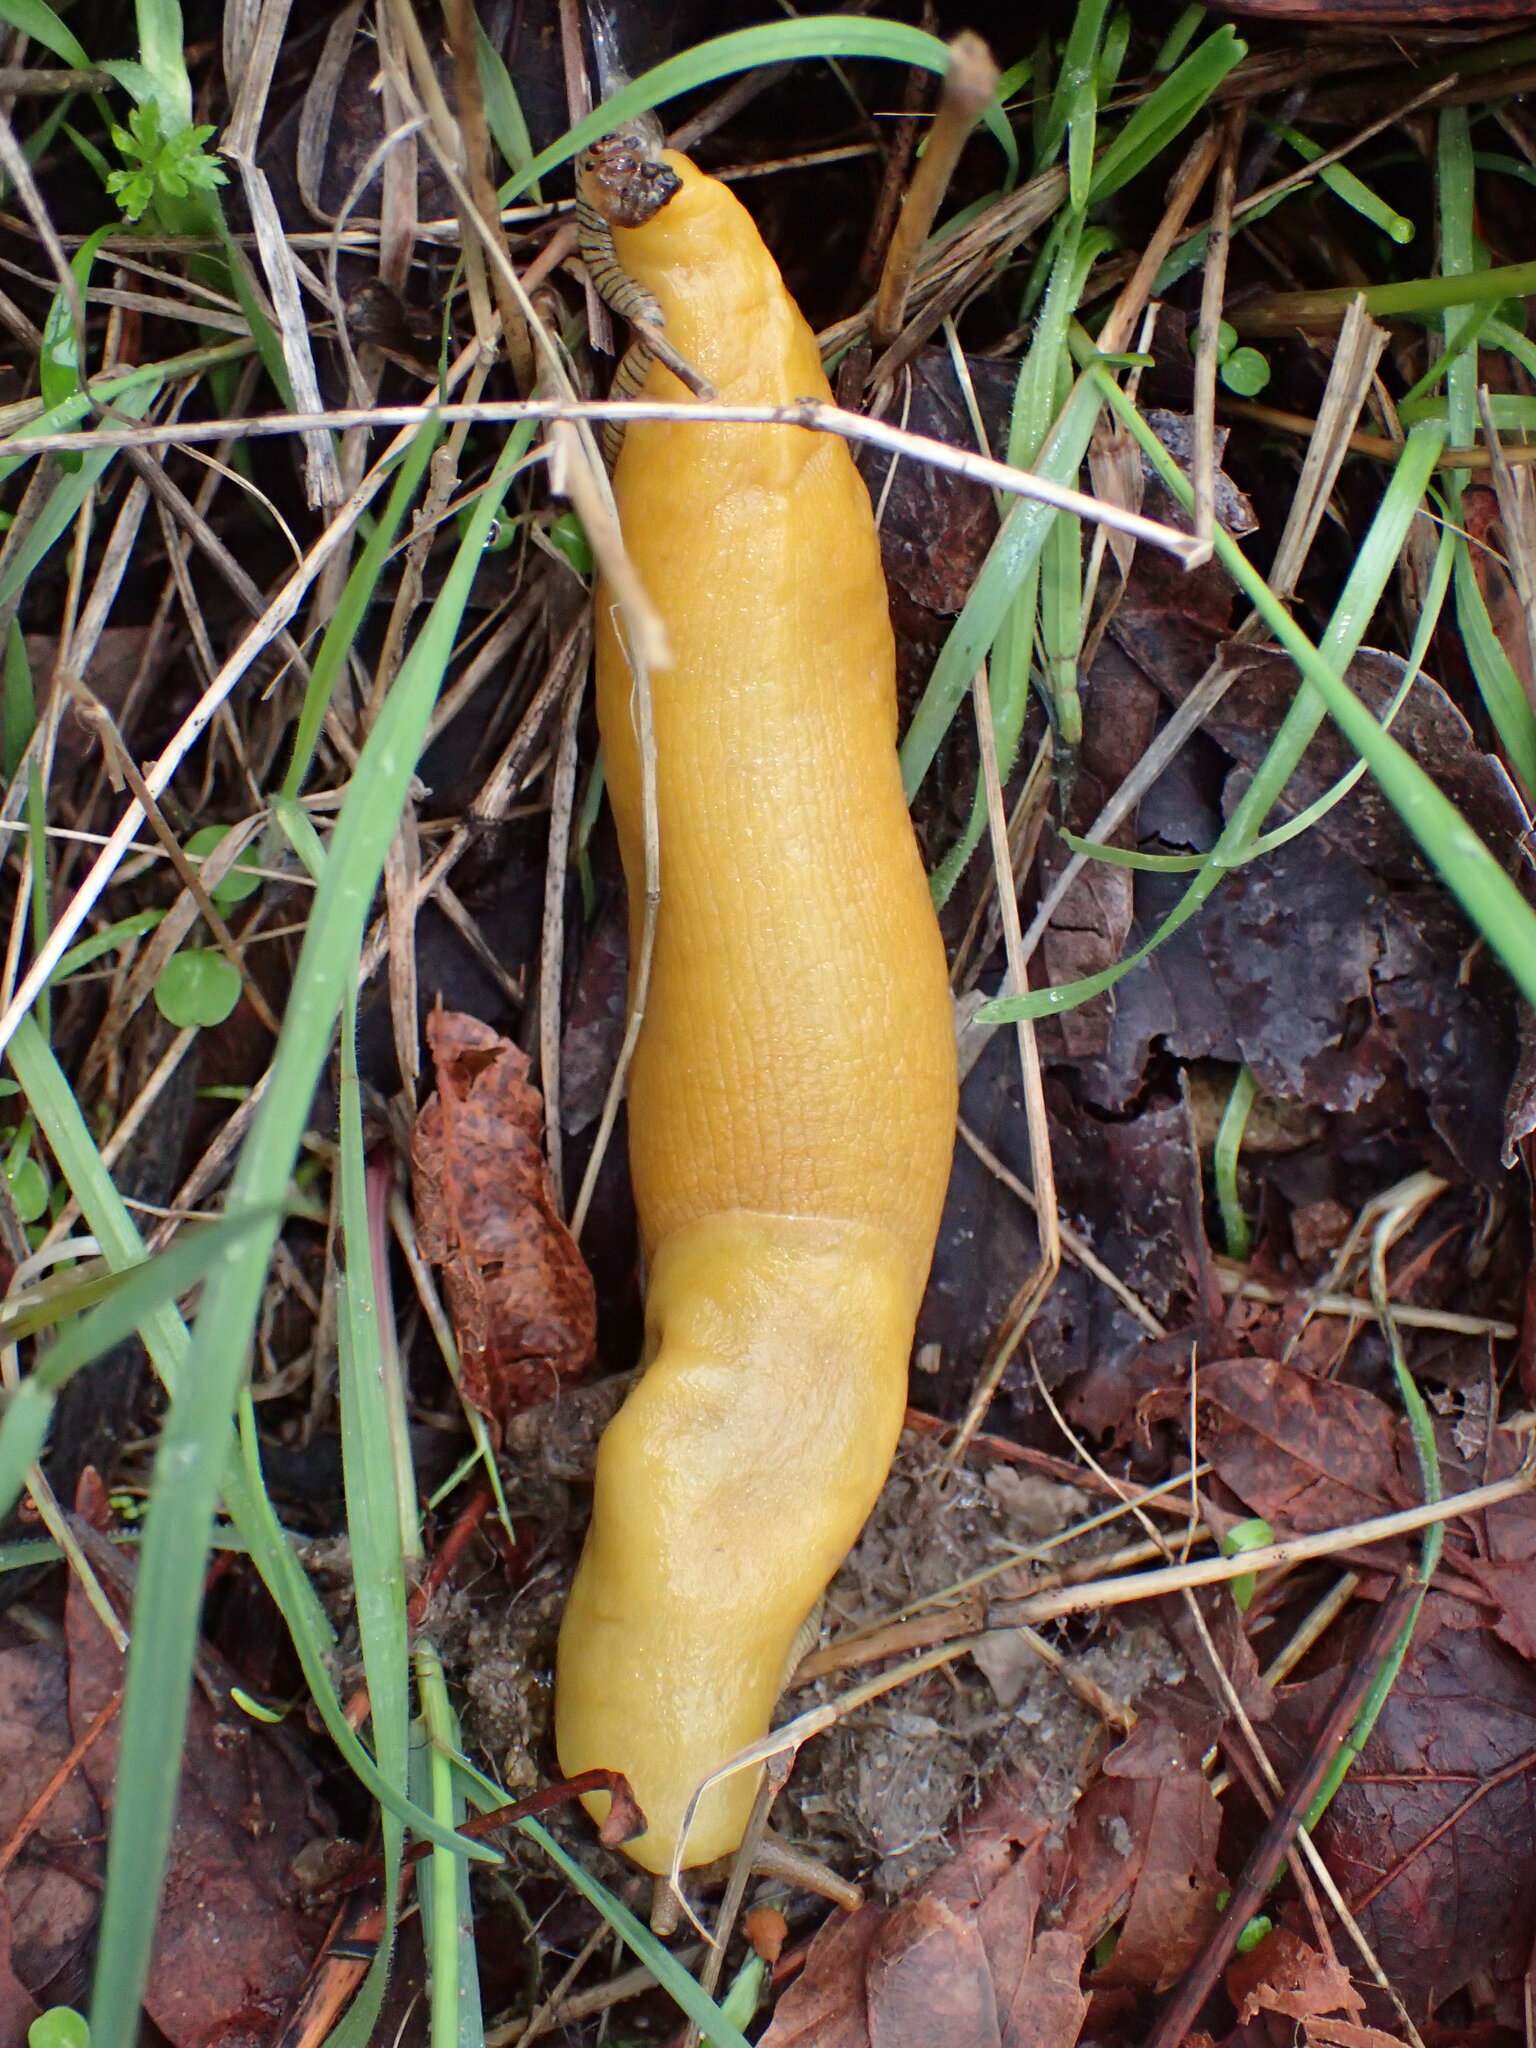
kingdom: Animalia
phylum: Mollusca
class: Gastropoda
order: Stylommatophora
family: Ariolimacidae
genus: Ariolimax
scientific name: Ariolimax stramineus
